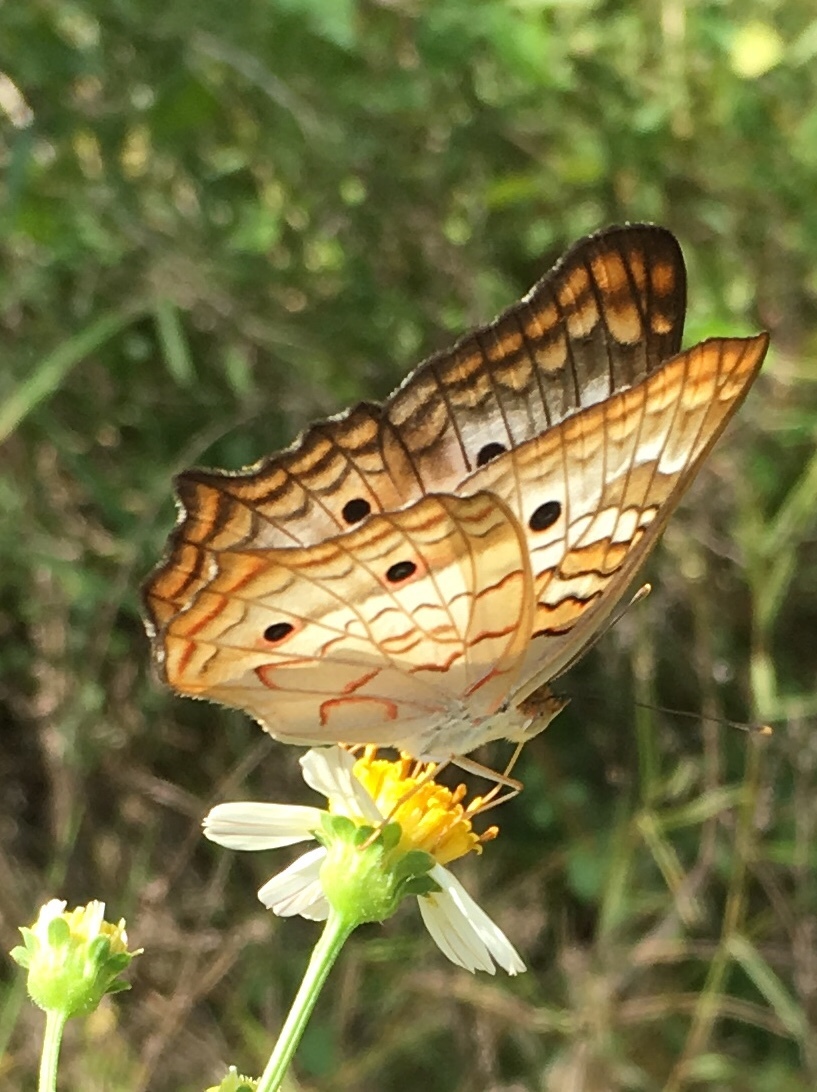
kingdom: Animalia
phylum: Arthropoda
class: Insecta
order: Lepidoptera
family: Nymphalidae
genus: Anartia
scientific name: Anartia jatrophae
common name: White peacock
